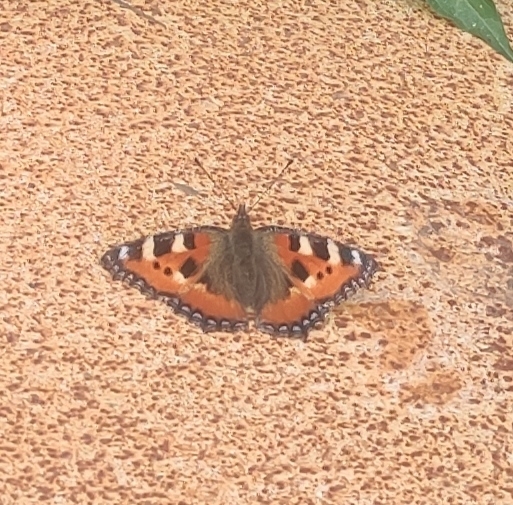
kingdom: Animalia
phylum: Arthropoda
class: Insecta
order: Lepidoptera
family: Nymphalidae
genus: Aglais
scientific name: Aglais urticae
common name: Small tortoiseshell
